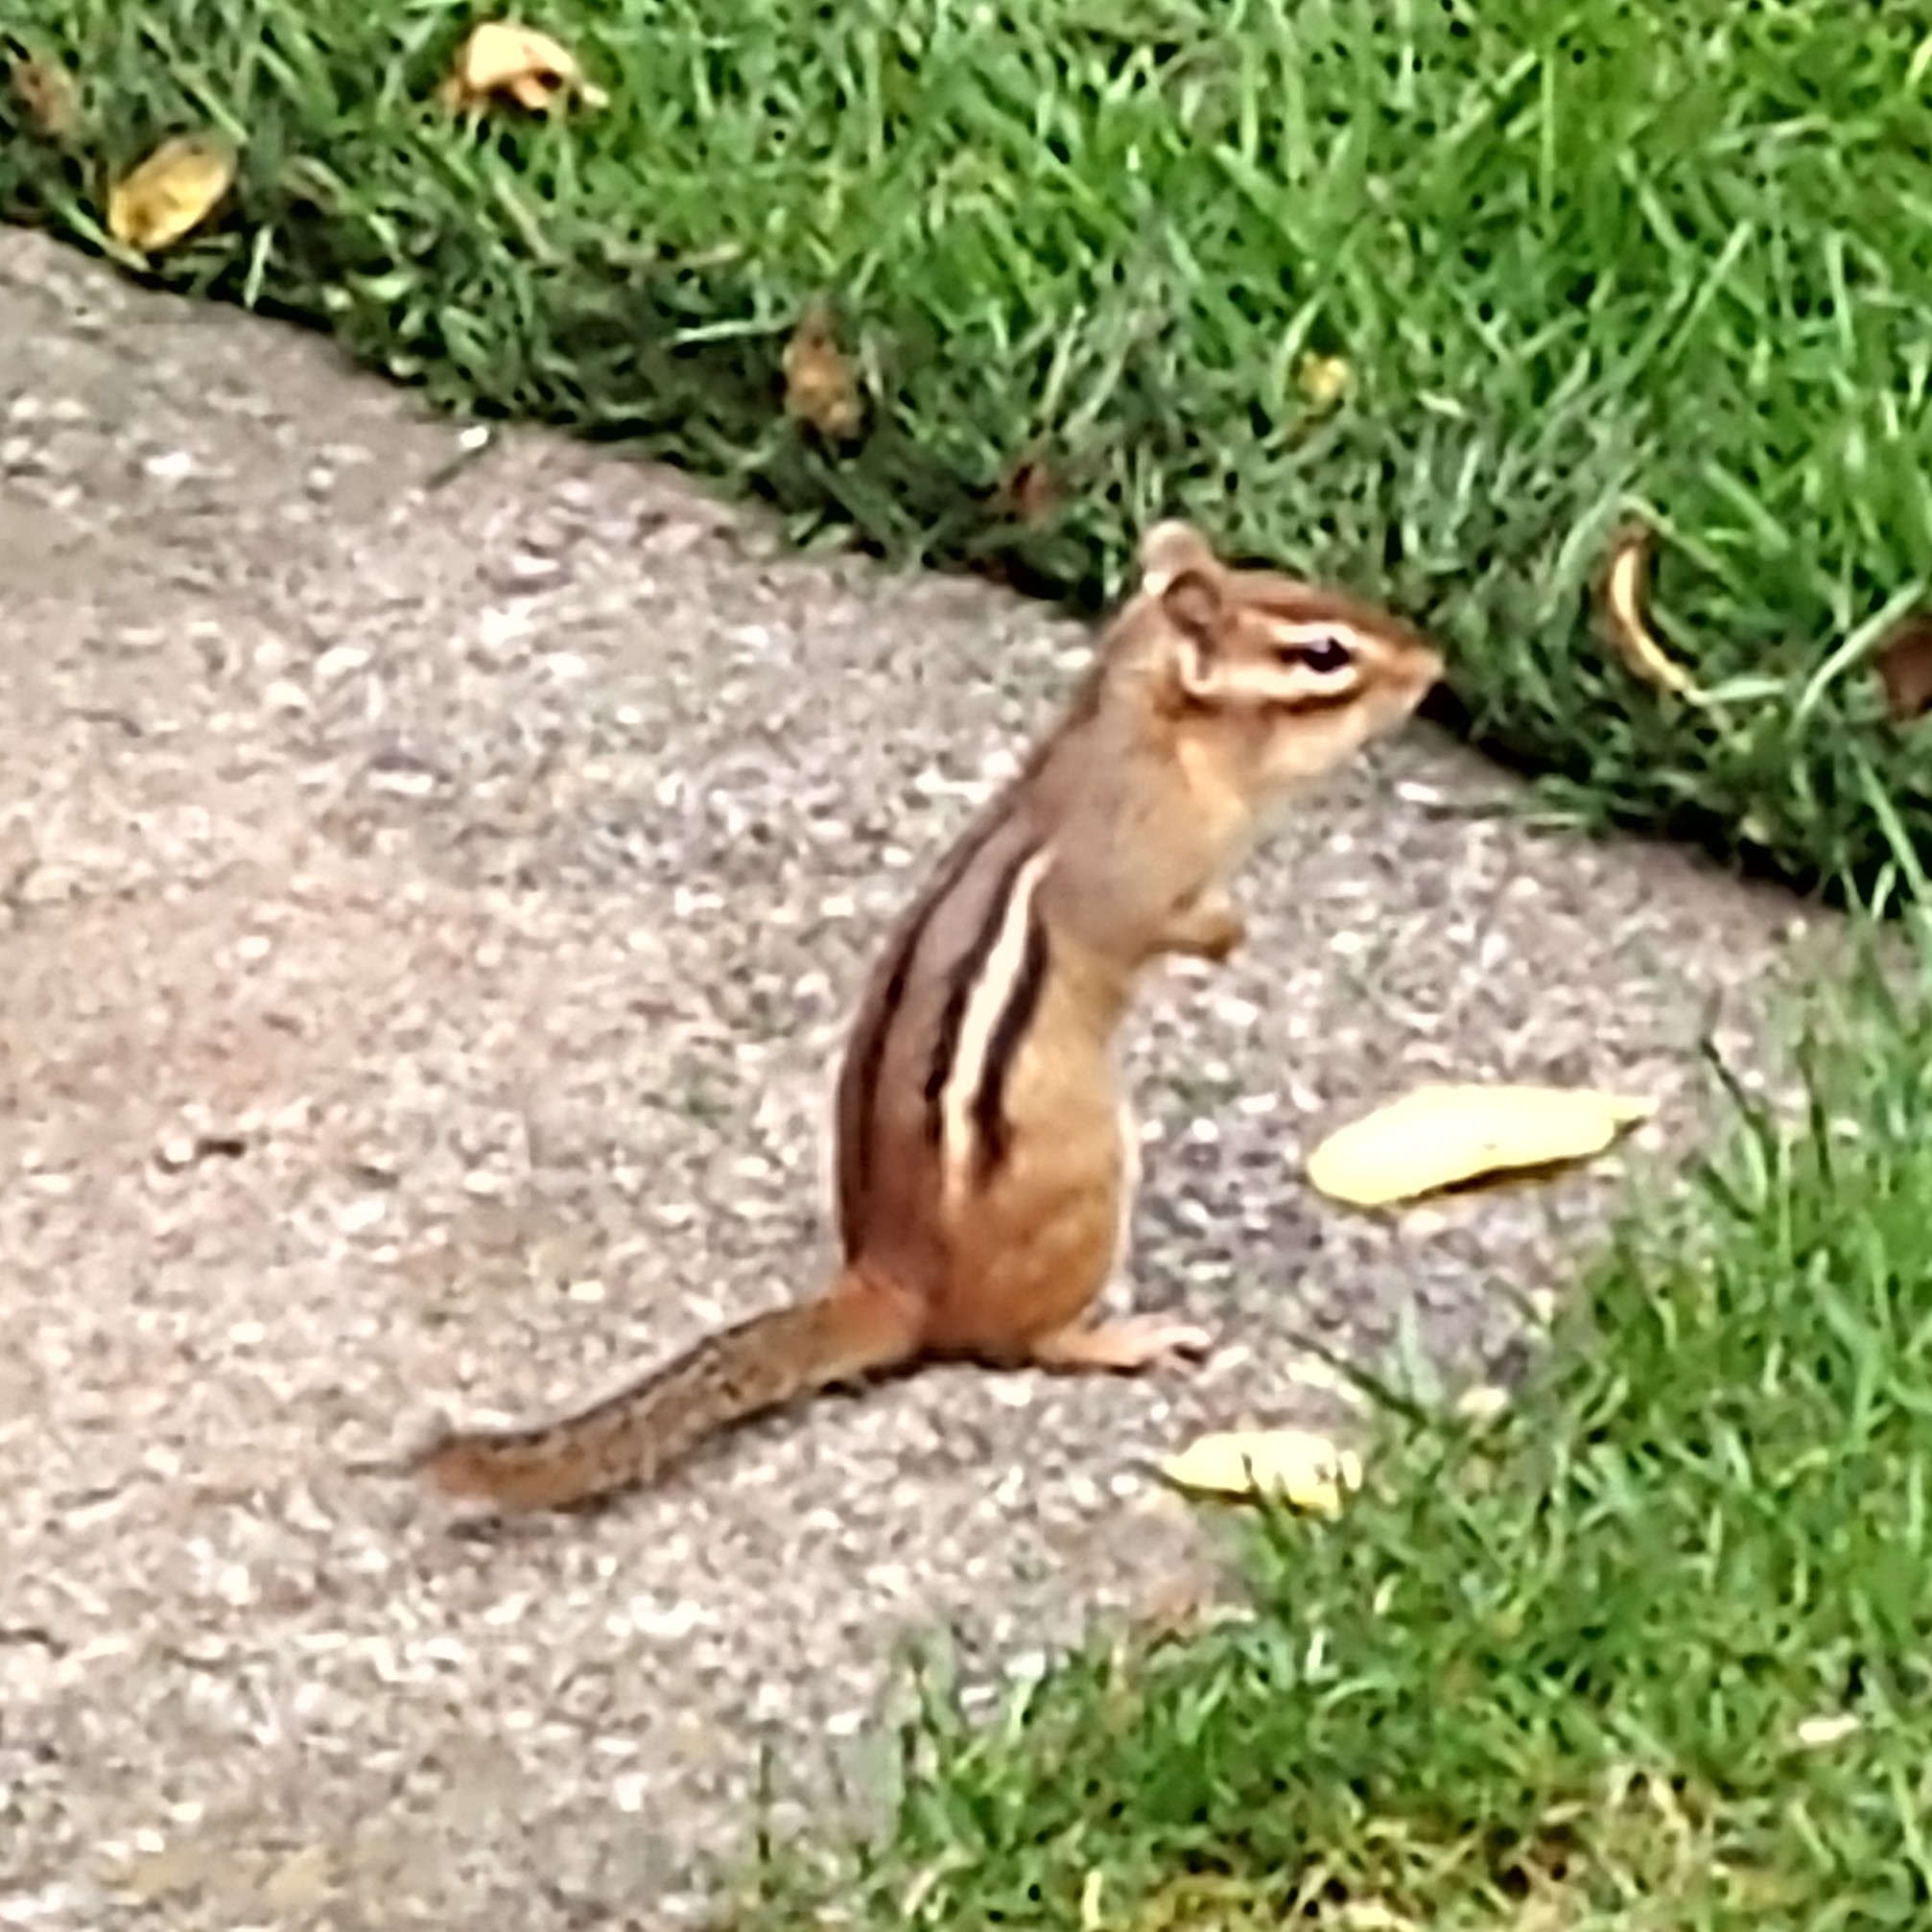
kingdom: Animalia
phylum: Chordata
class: Mammalia
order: Rodentia
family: Sciuridae
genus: Tamias
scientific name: Tamias striatus
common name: Eastern chipmunk
